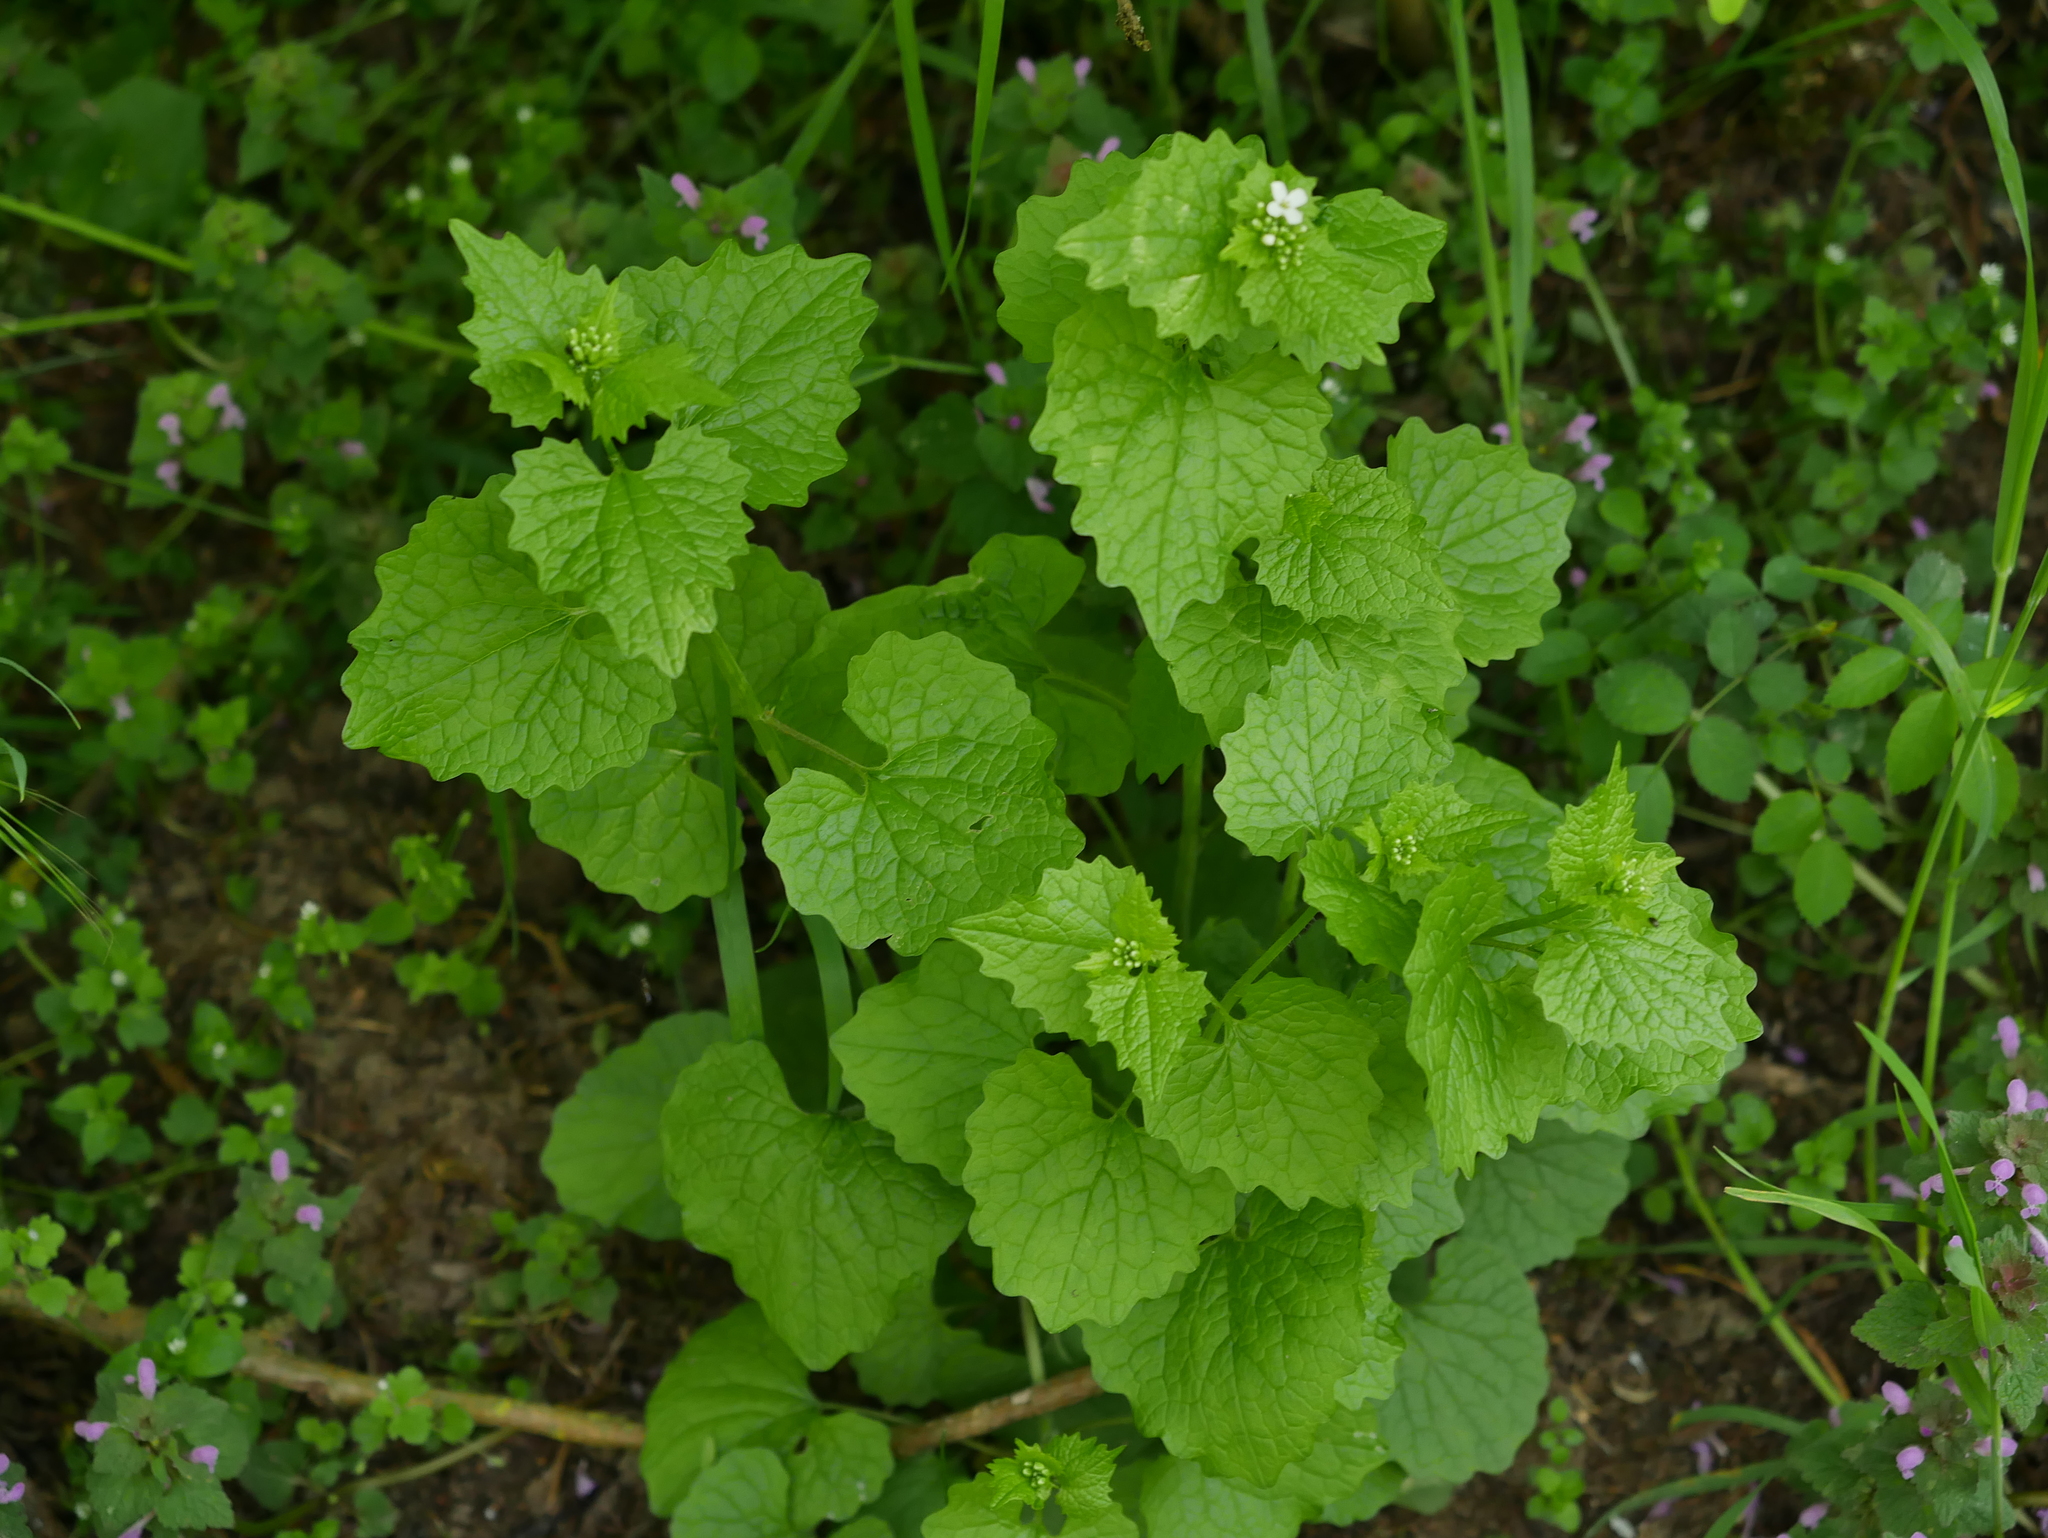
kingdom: Plantae
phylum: Tracheophyta
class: Magnoliopsida
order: Brassicales
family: Brassicaceae
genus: Alliaria
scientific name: Alliaria petiolata
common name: Garlic mustard
